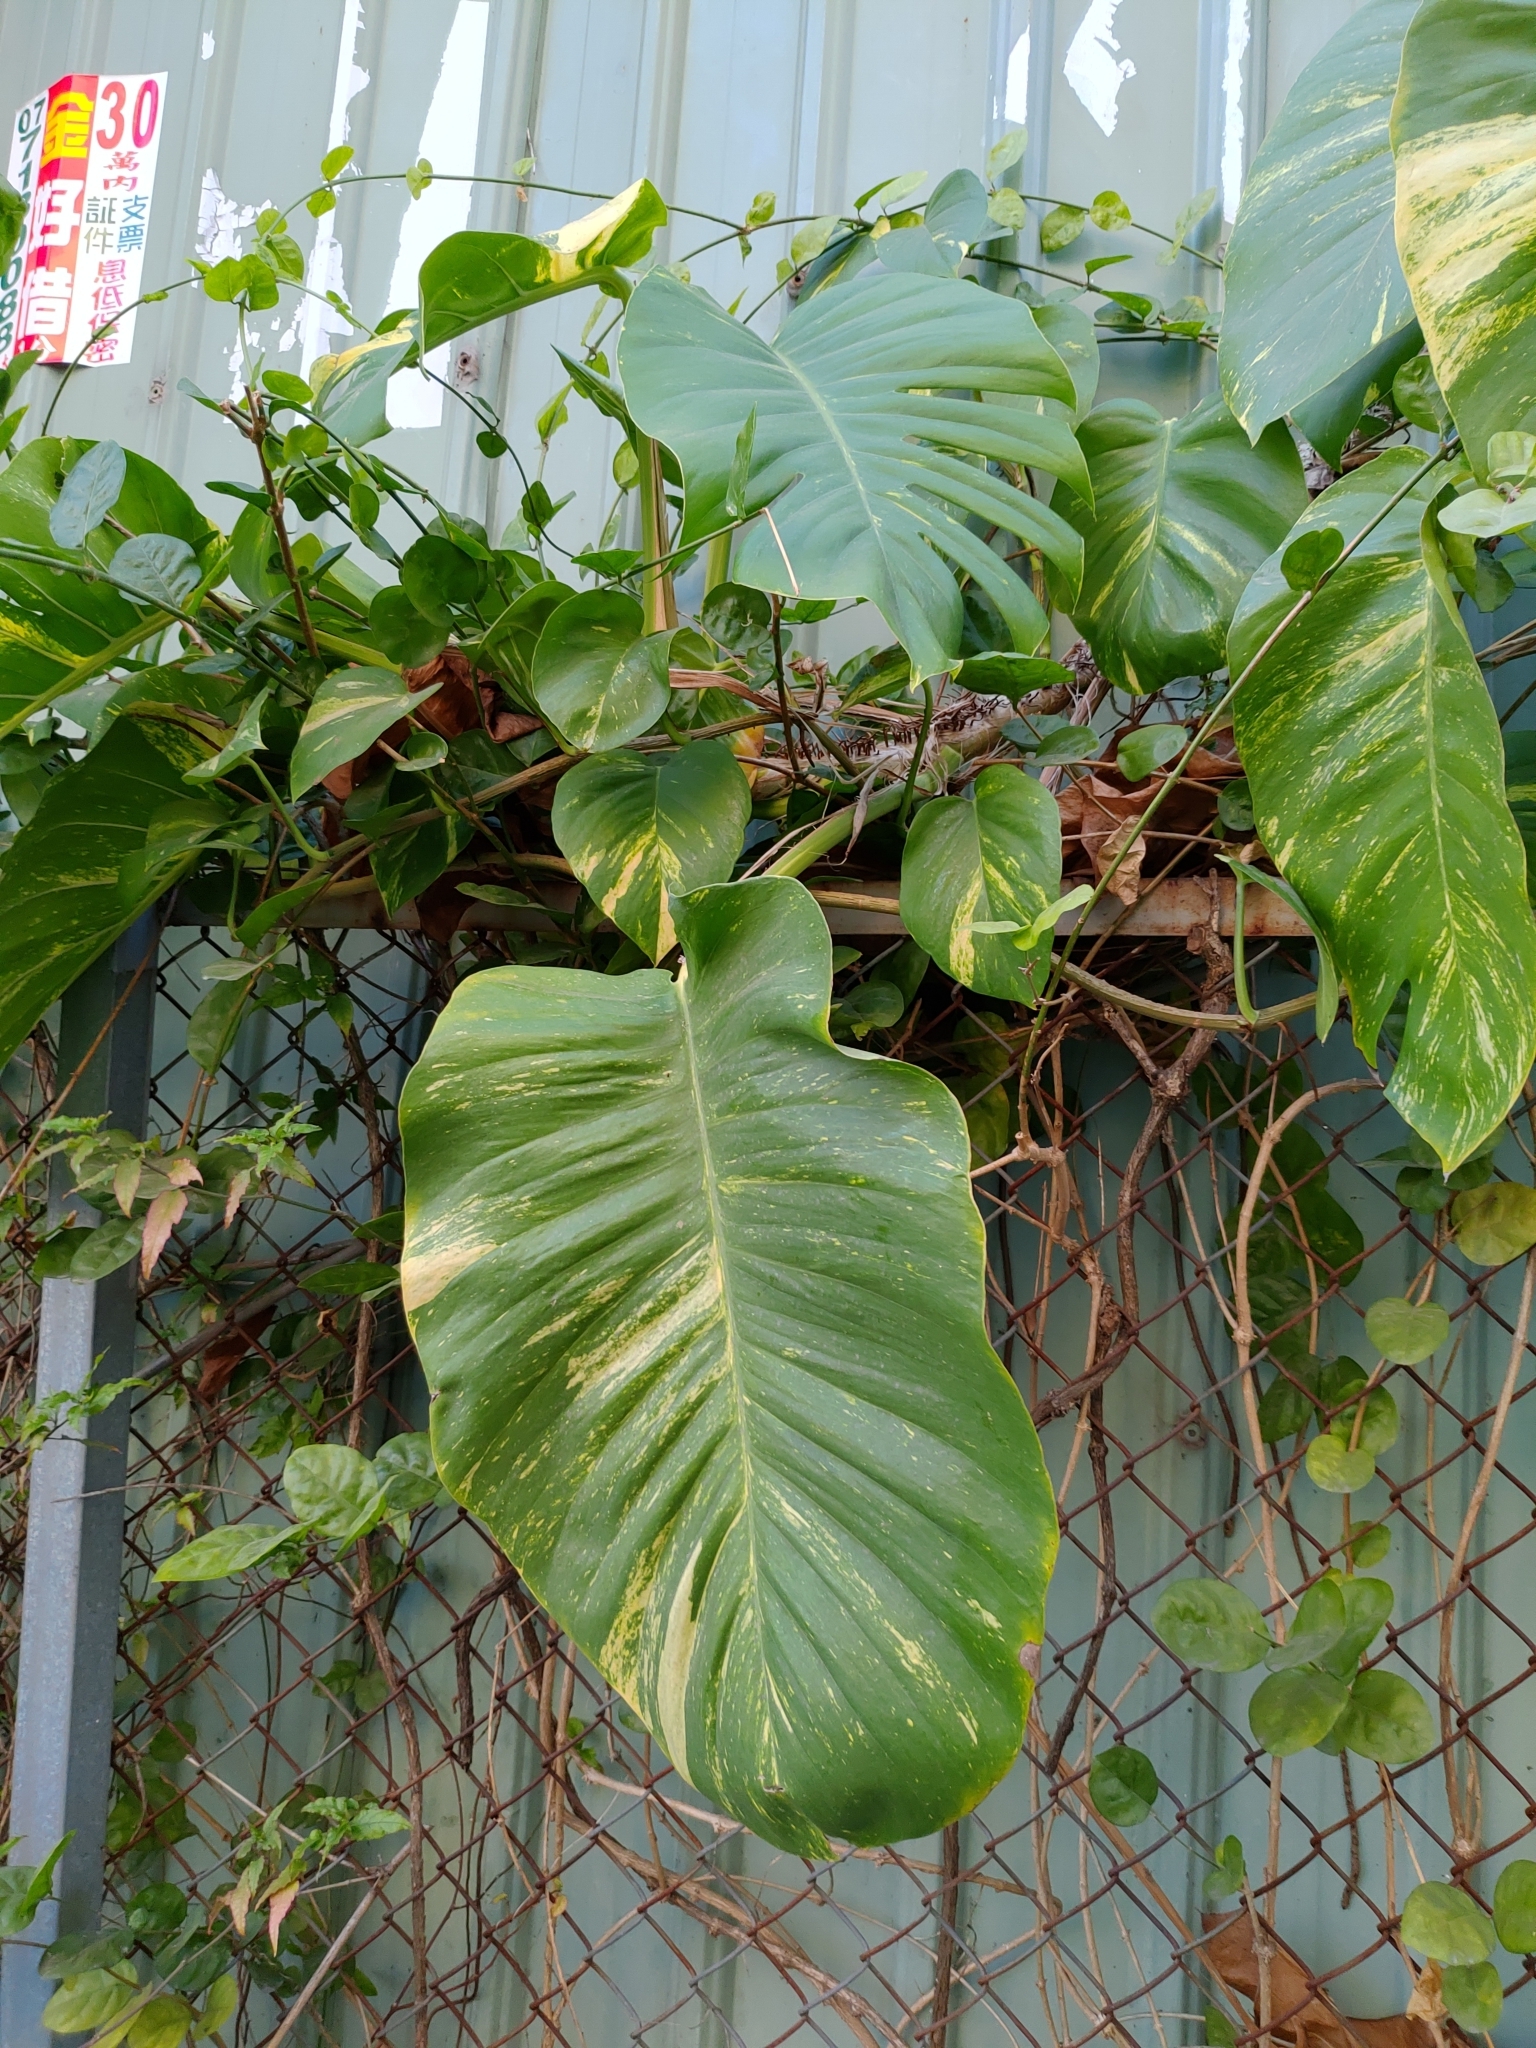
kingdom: Plantae
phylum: Tracheophyta
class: Liliopsida
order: Alismatales
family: Araceae
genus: Epipremnum
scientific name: Epipremnum aureum
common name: Golden hunter's-robe
